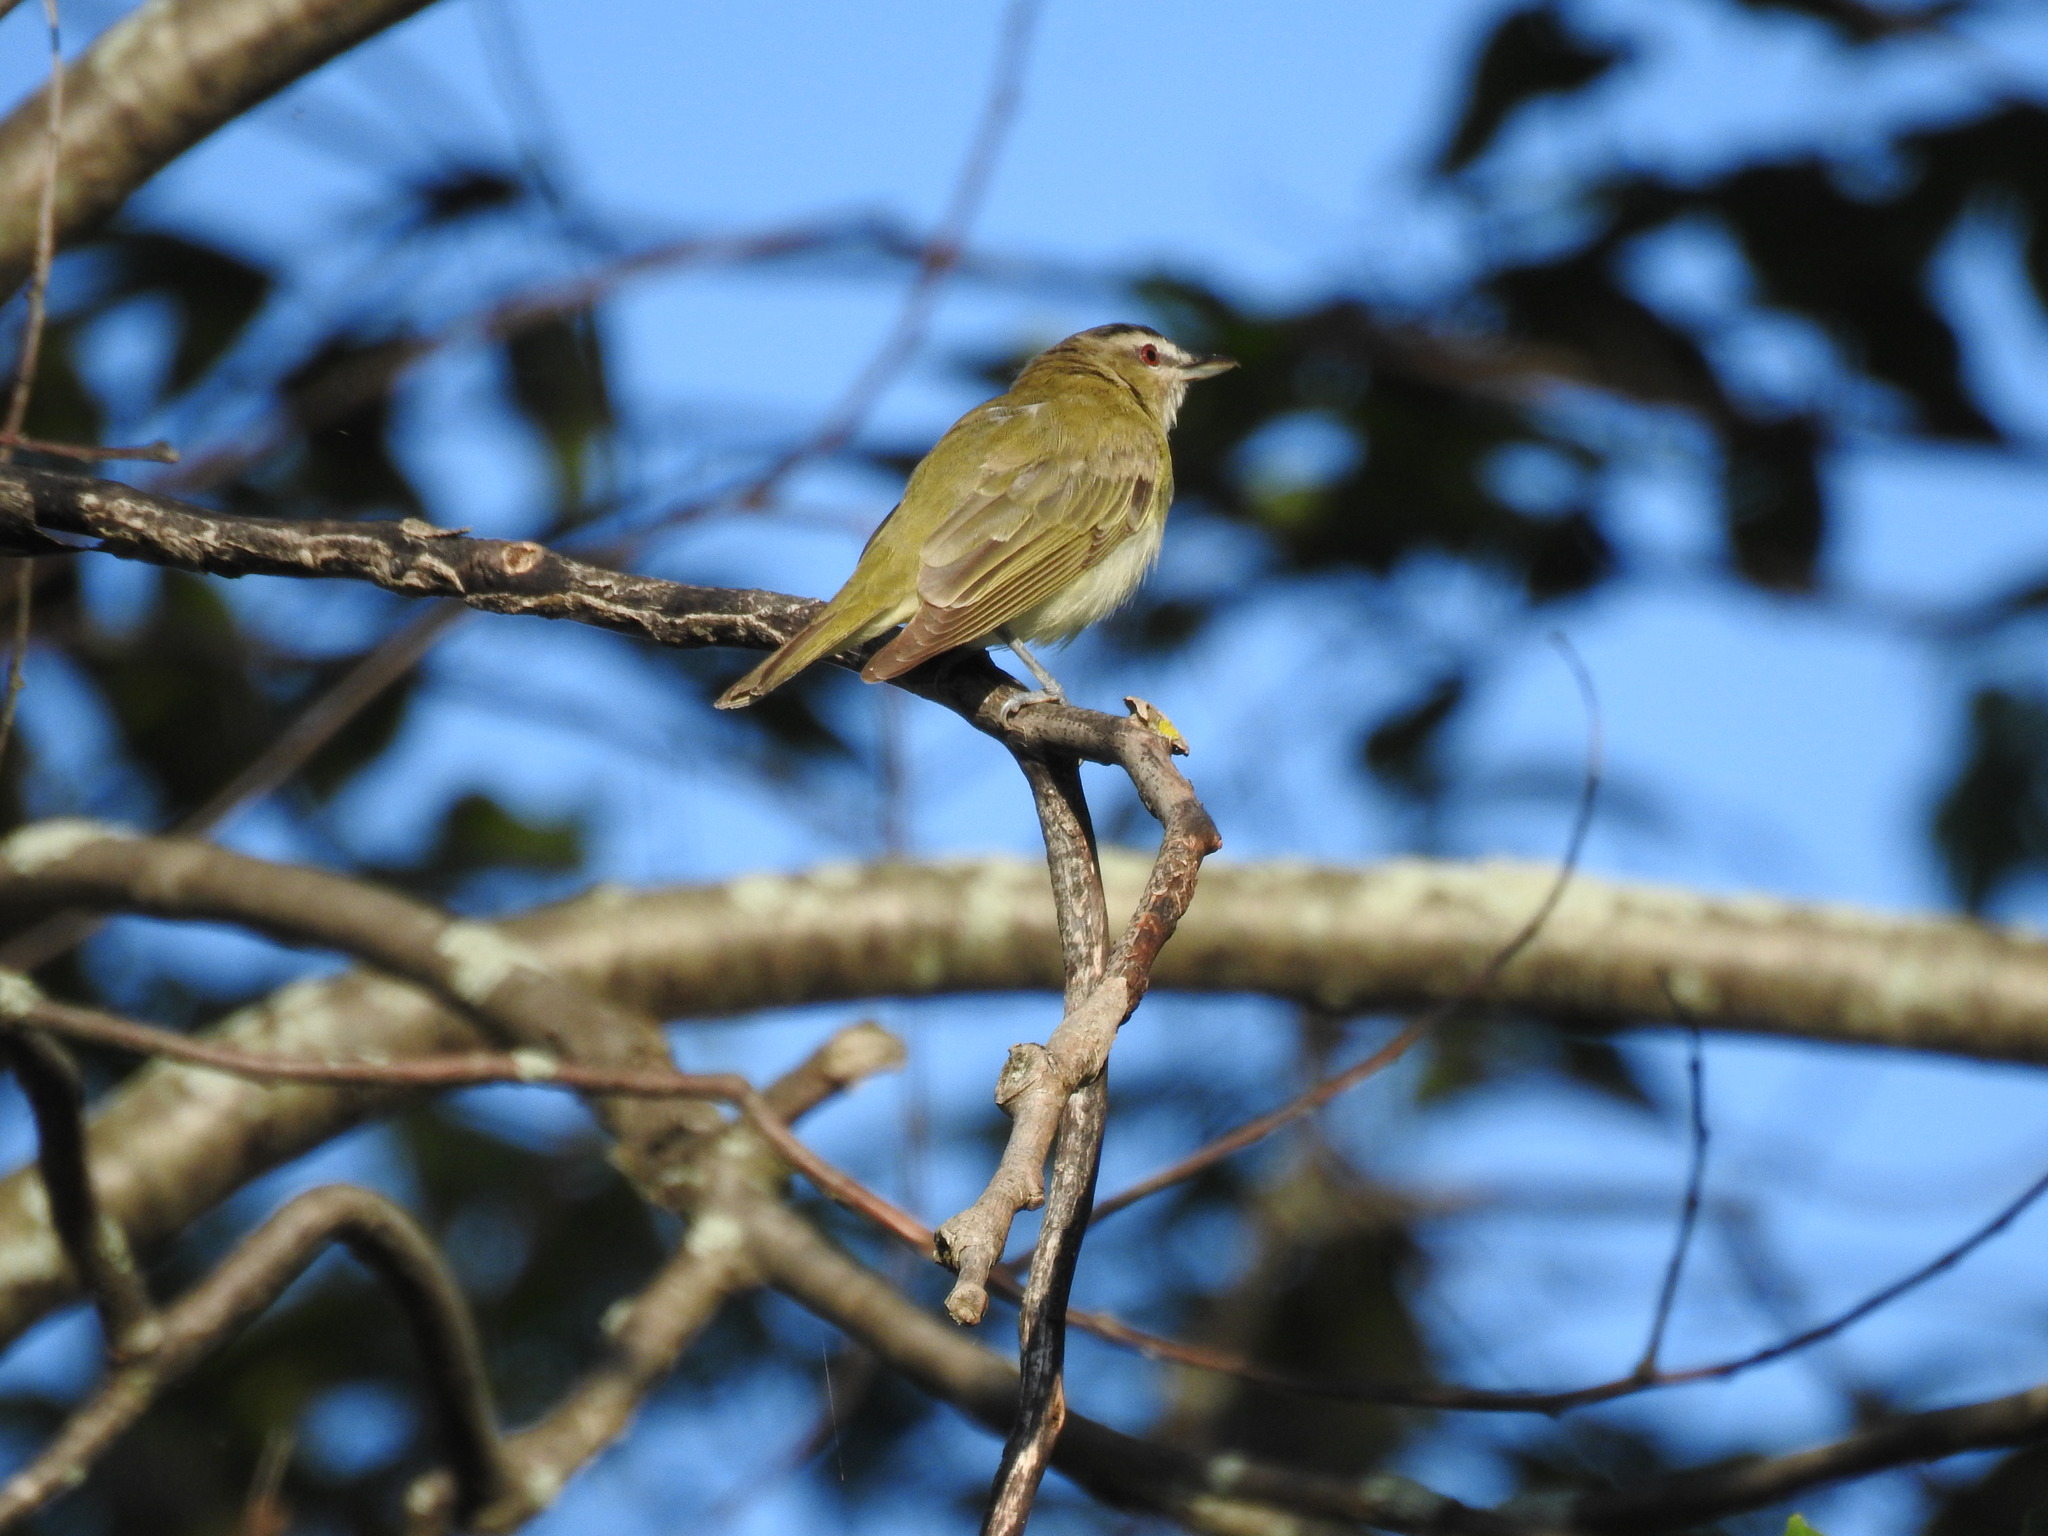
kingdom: Animalia
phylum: Chordata
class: Aves
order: Passeriformes
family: Vireonidae
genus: Vireo
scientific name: Vireo olivaceus
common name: Red-eyed vireo
